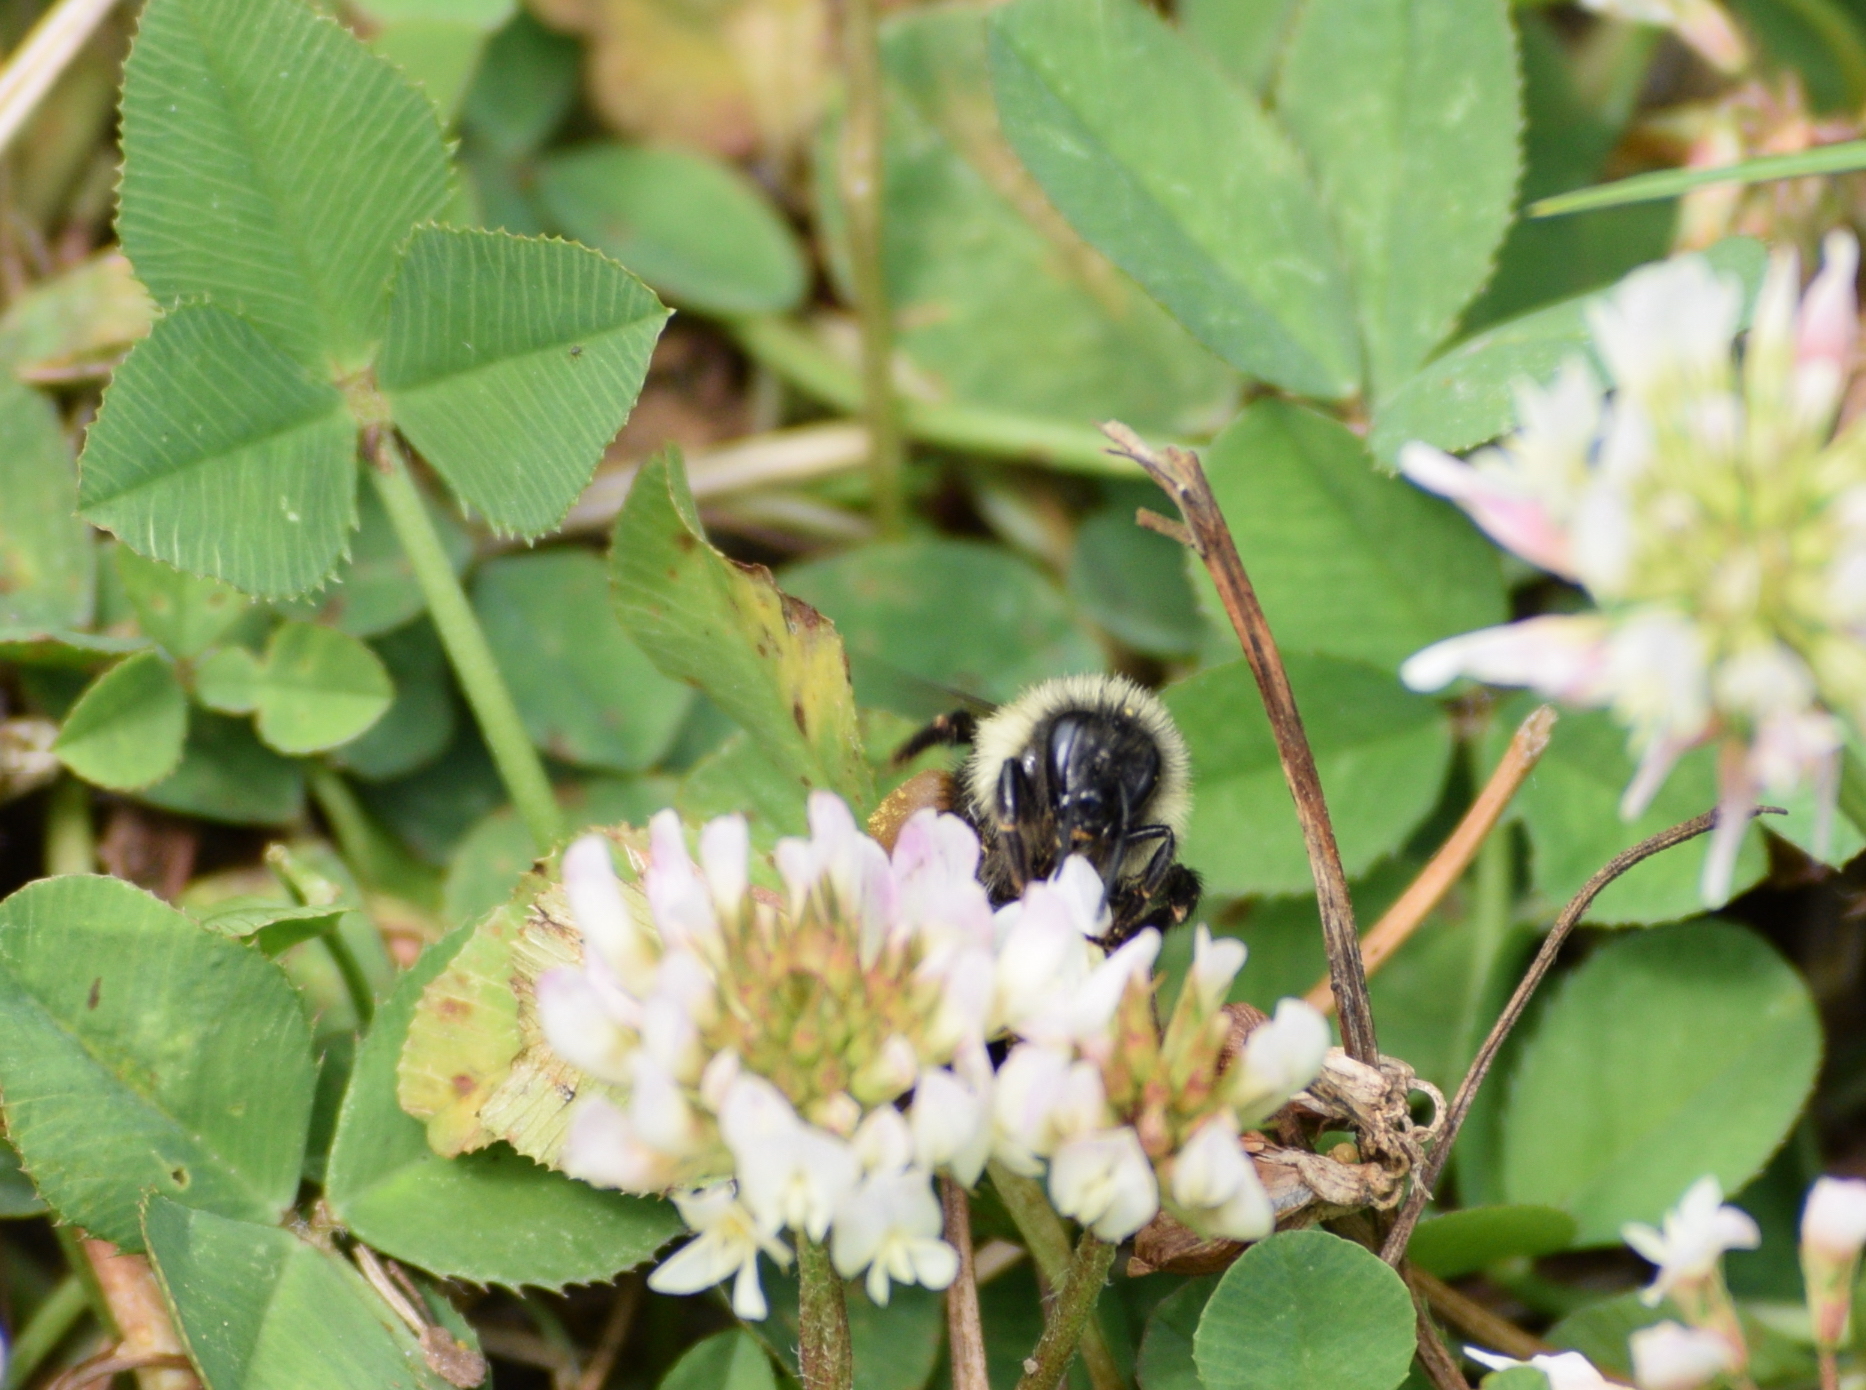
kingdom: Animalia
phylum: Arthropoda
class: Insecta
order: Hymenoptera
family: Apidae
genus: Bombus
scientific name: Bombus ternarius
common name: Tri-colored bumble bee
